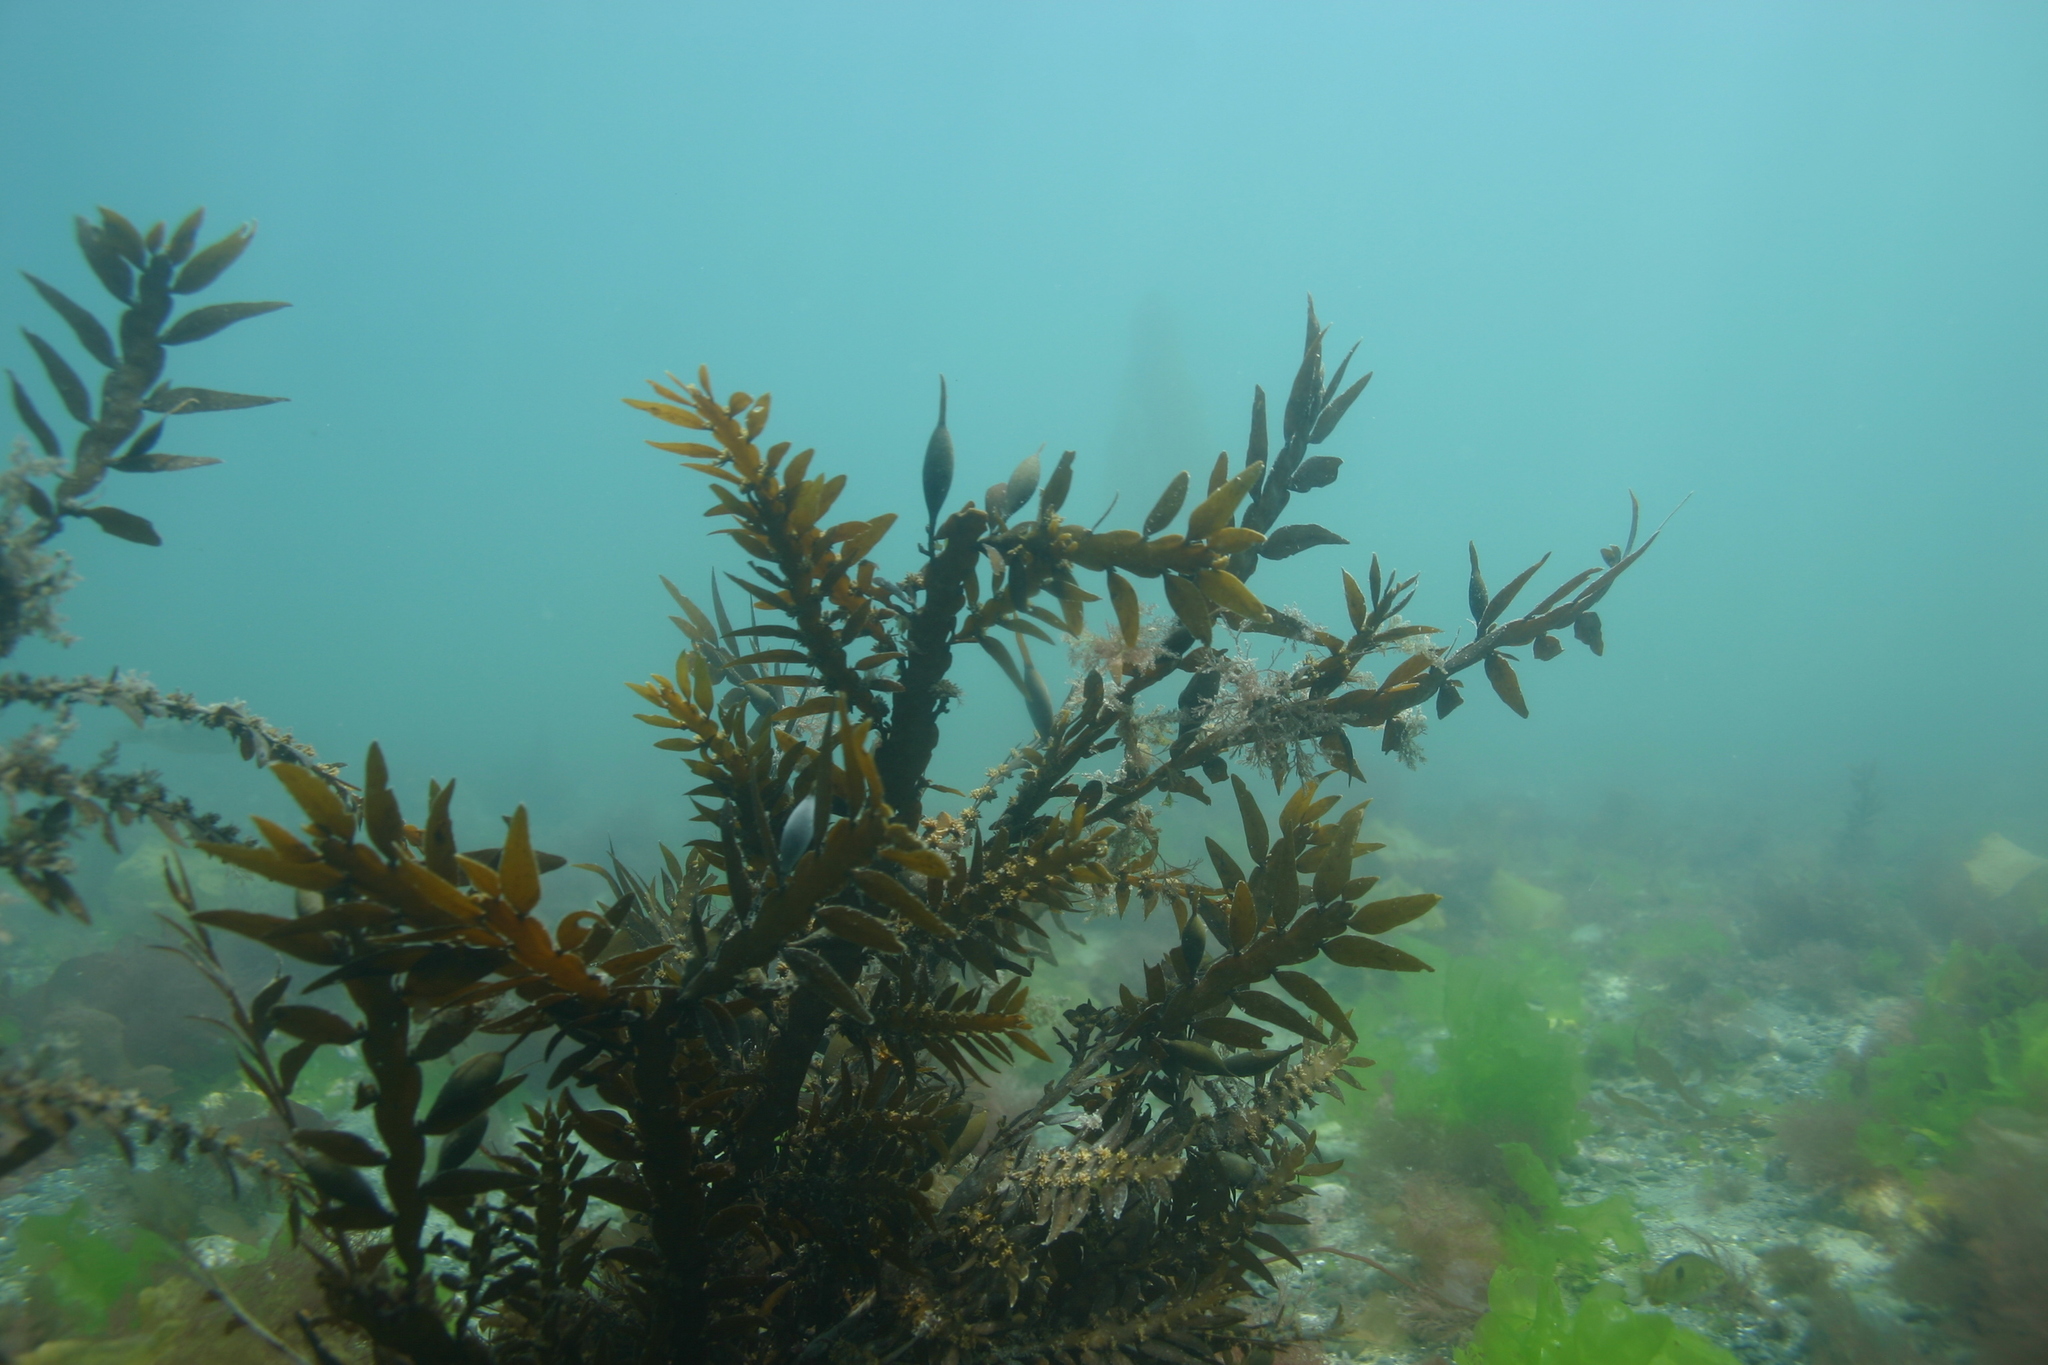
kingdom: Chromista
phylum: Ochrophyta
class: Phaeophyceae
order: Fucales
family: Sargassaceae
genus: Carpophyllum
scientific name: Carpophyllum maschalocarpum
